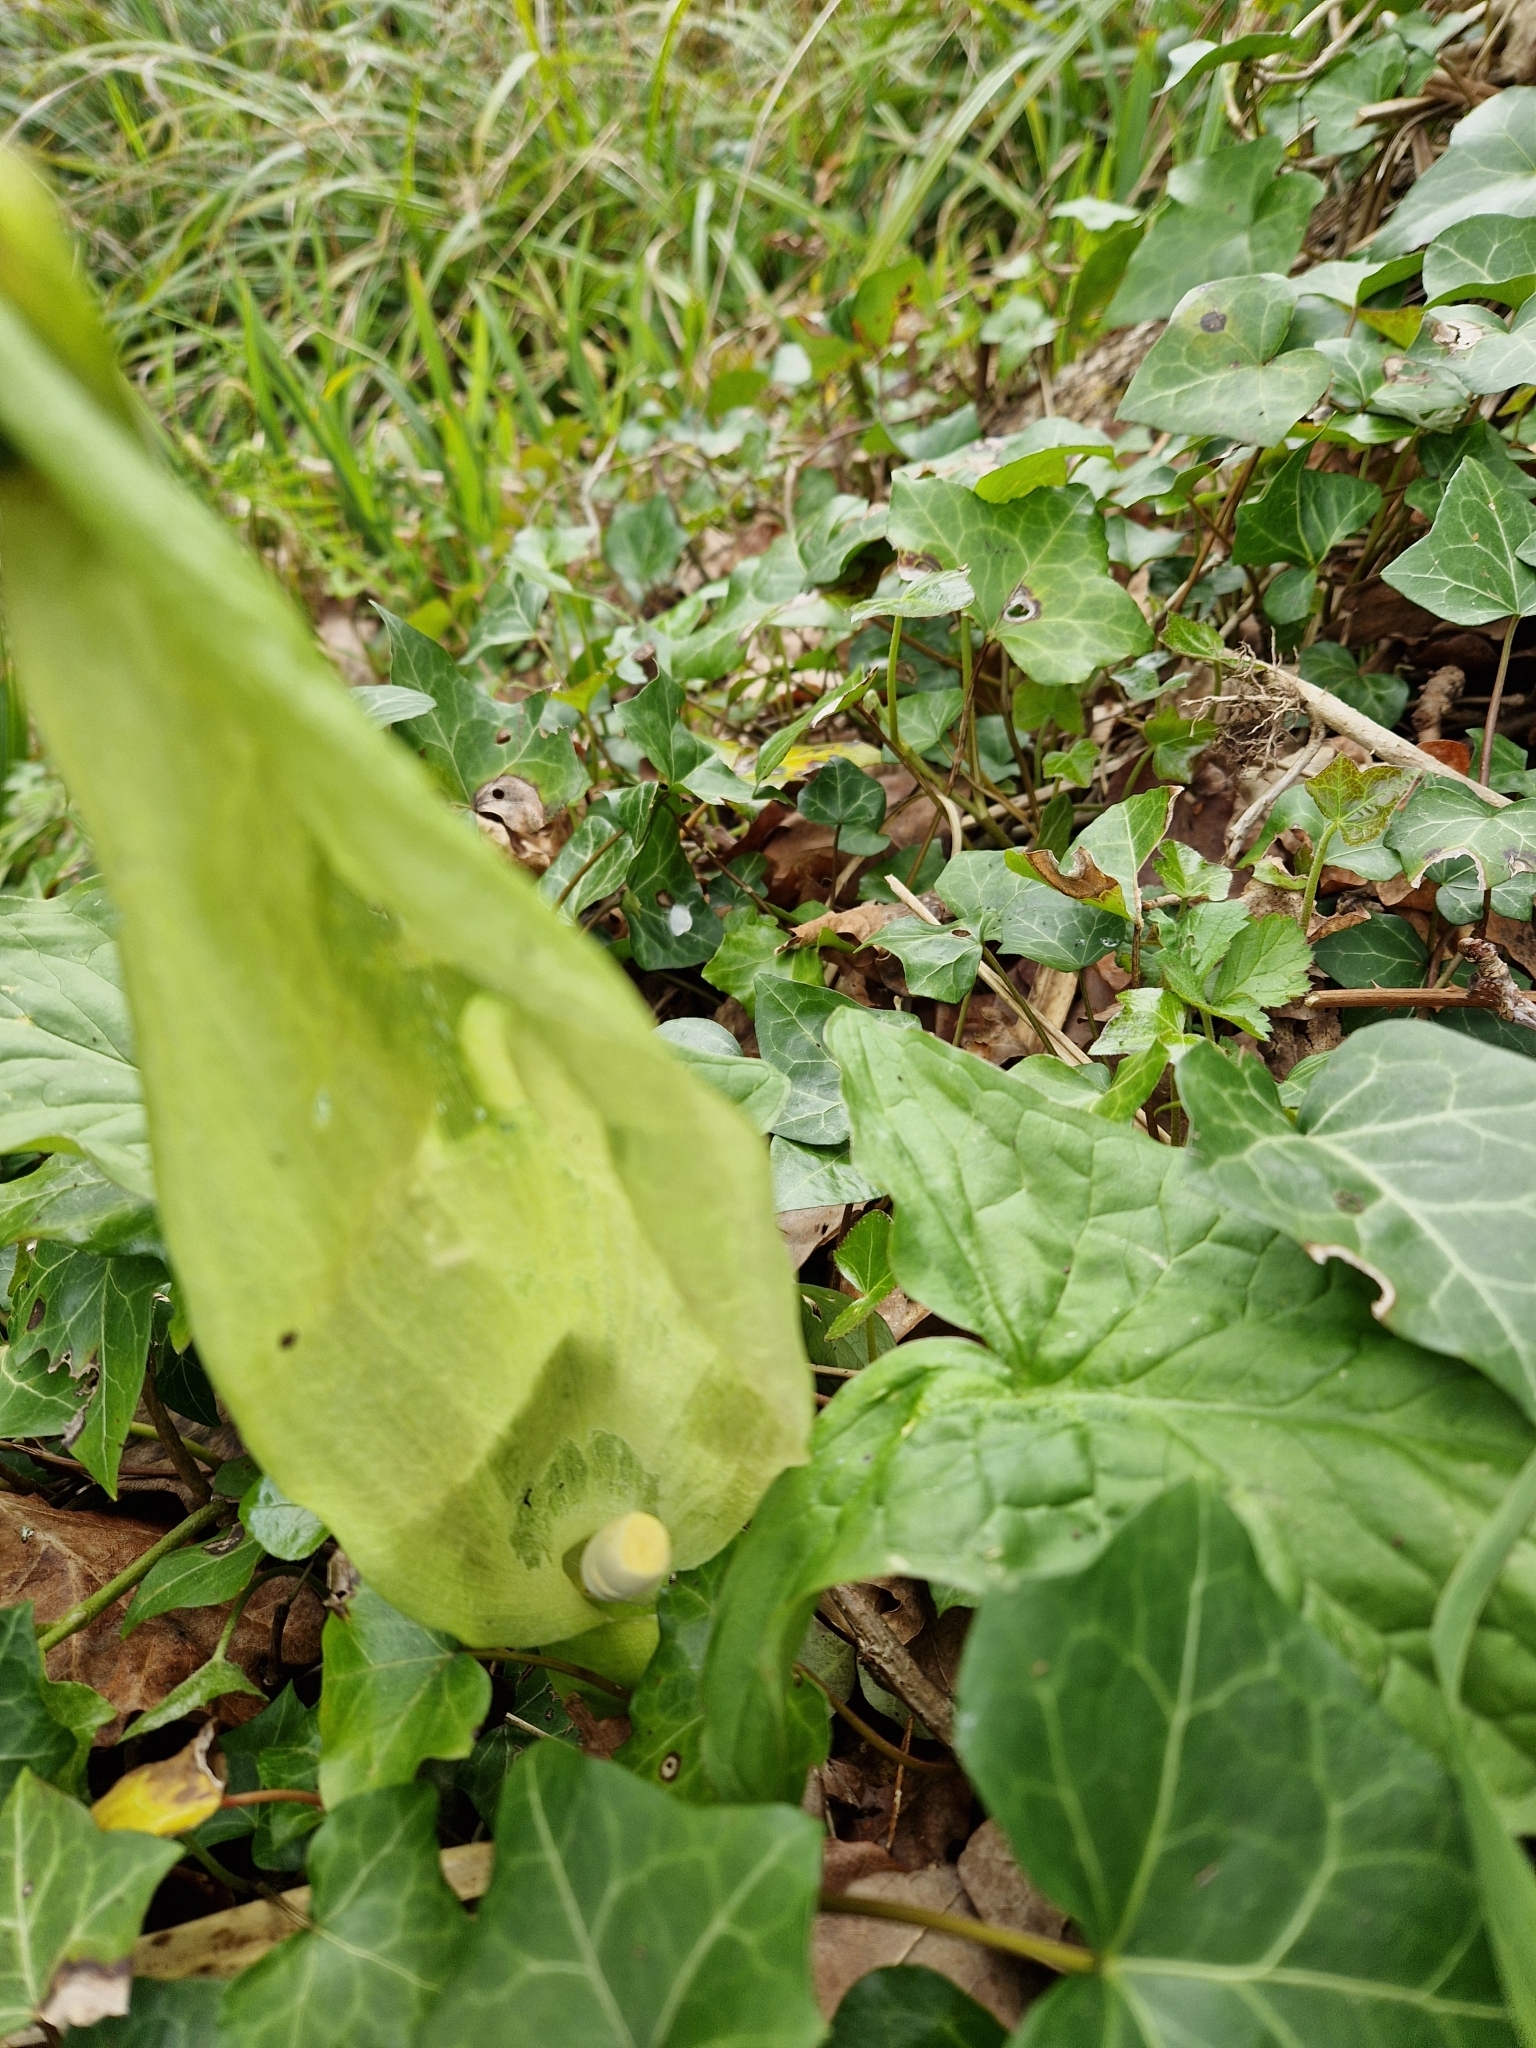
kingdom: Plantae
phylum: Tracheophyta
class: Liliopsida
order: Alismatales
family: Araceae
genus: Arum
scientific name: Arum maculatum
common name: Lords-and-ladies
